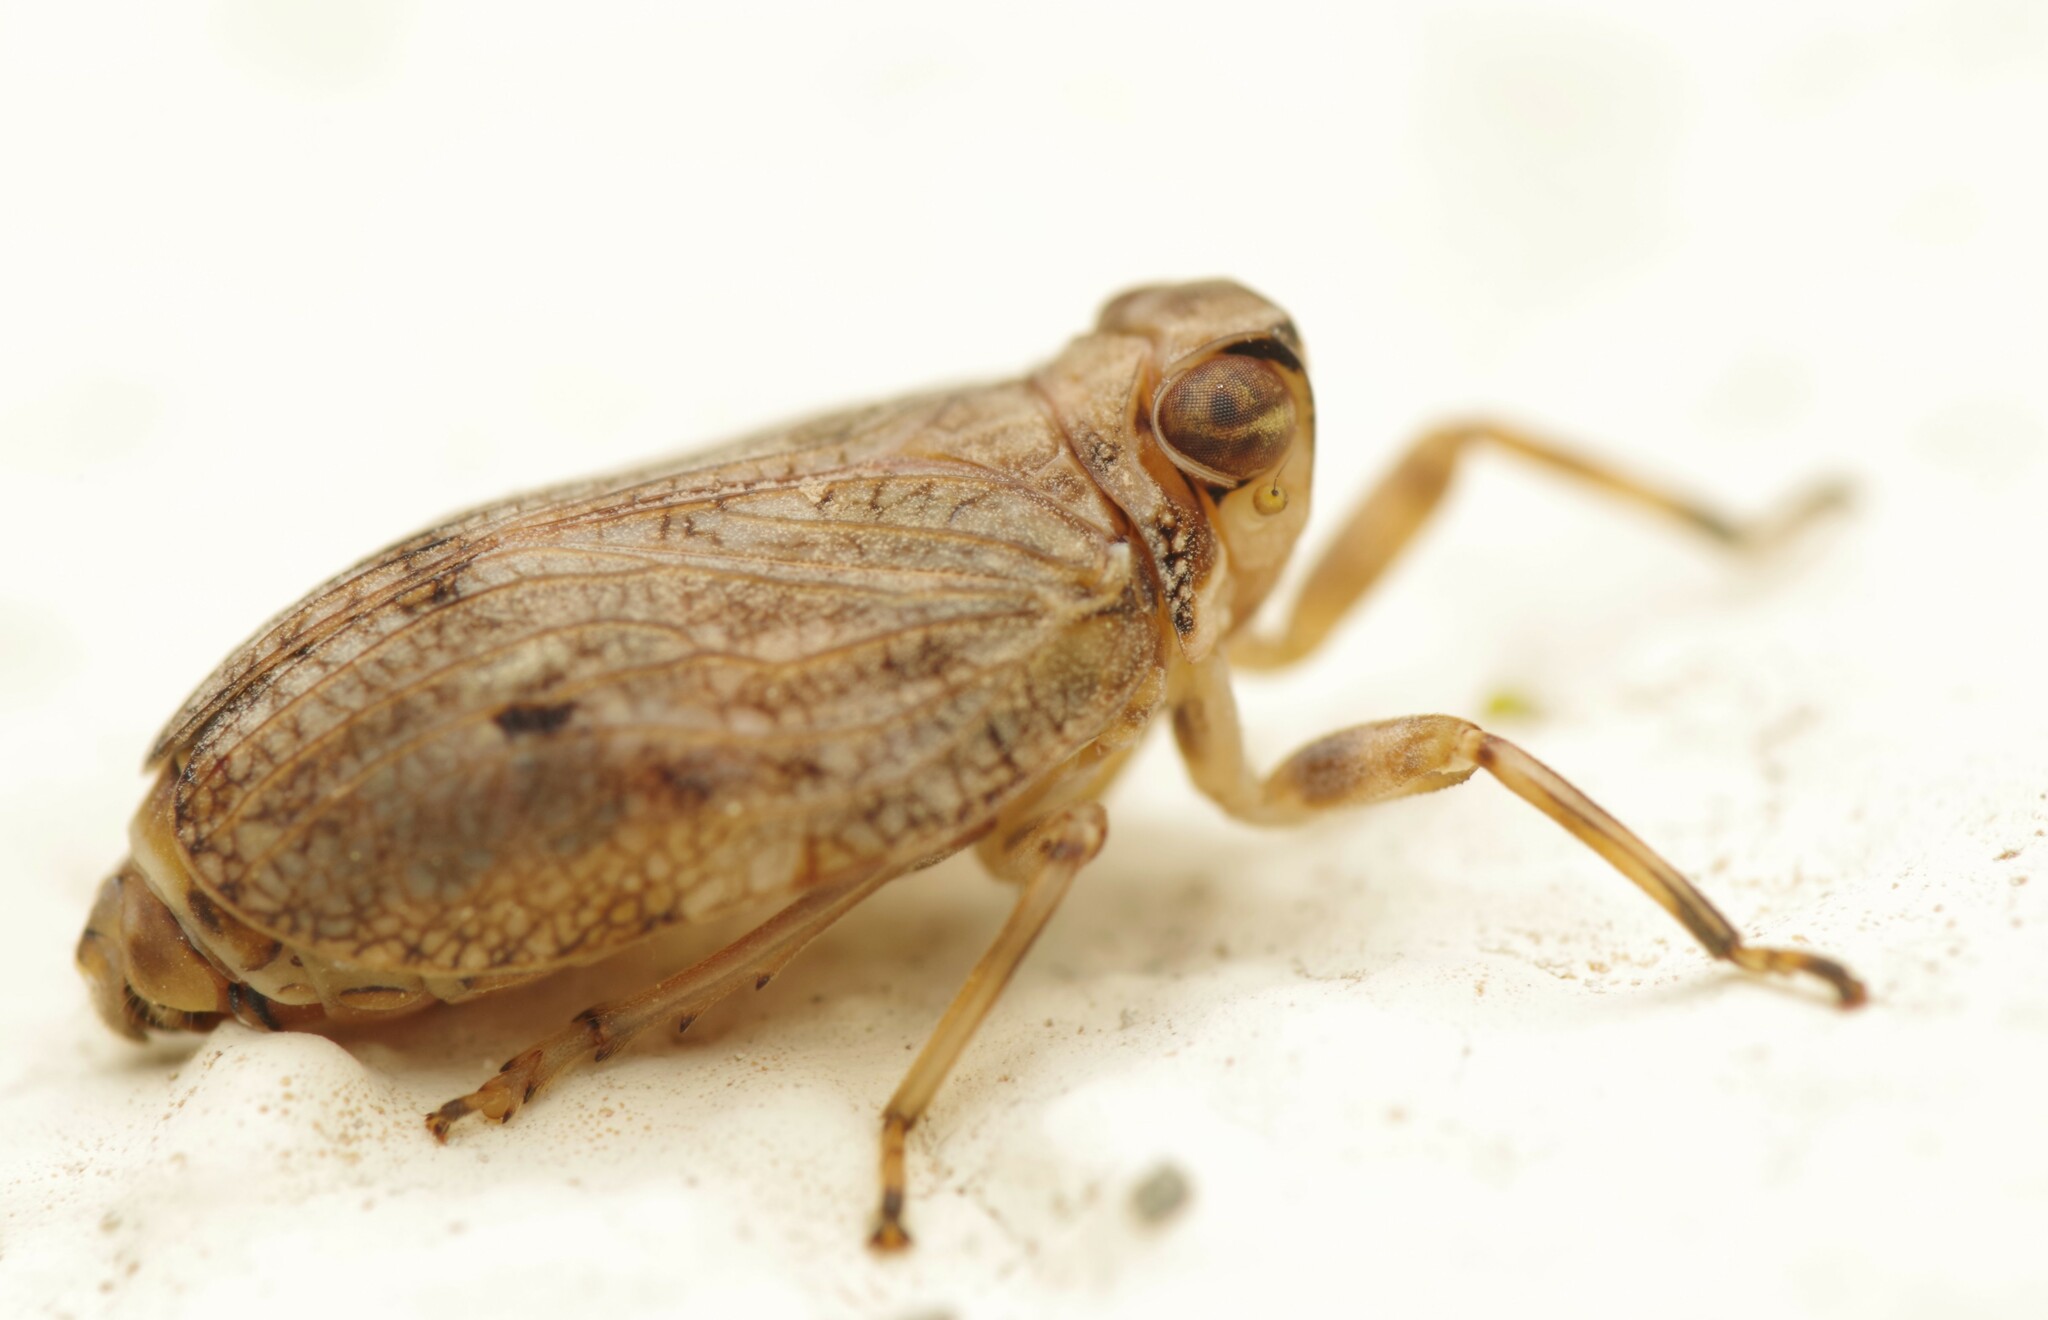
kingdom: Animalia
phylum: Arthropoda
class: Insecta
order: Hemiptera
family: Issidae
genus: Issus
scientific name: Issus coleoptratus
